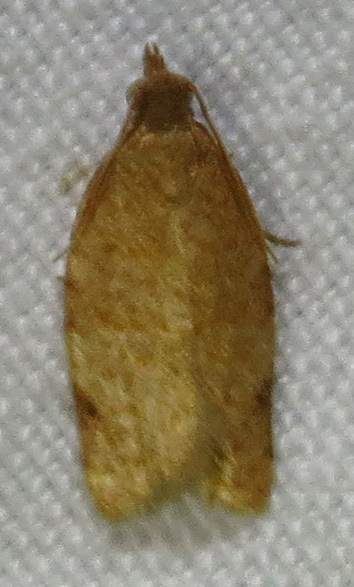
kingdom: Animalia
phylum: Arthropoda
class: Insecta
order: Lepidoptera
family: Tortricidae
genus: Clepsis
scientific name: Clepsis virescana
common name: Greenish apple moth
